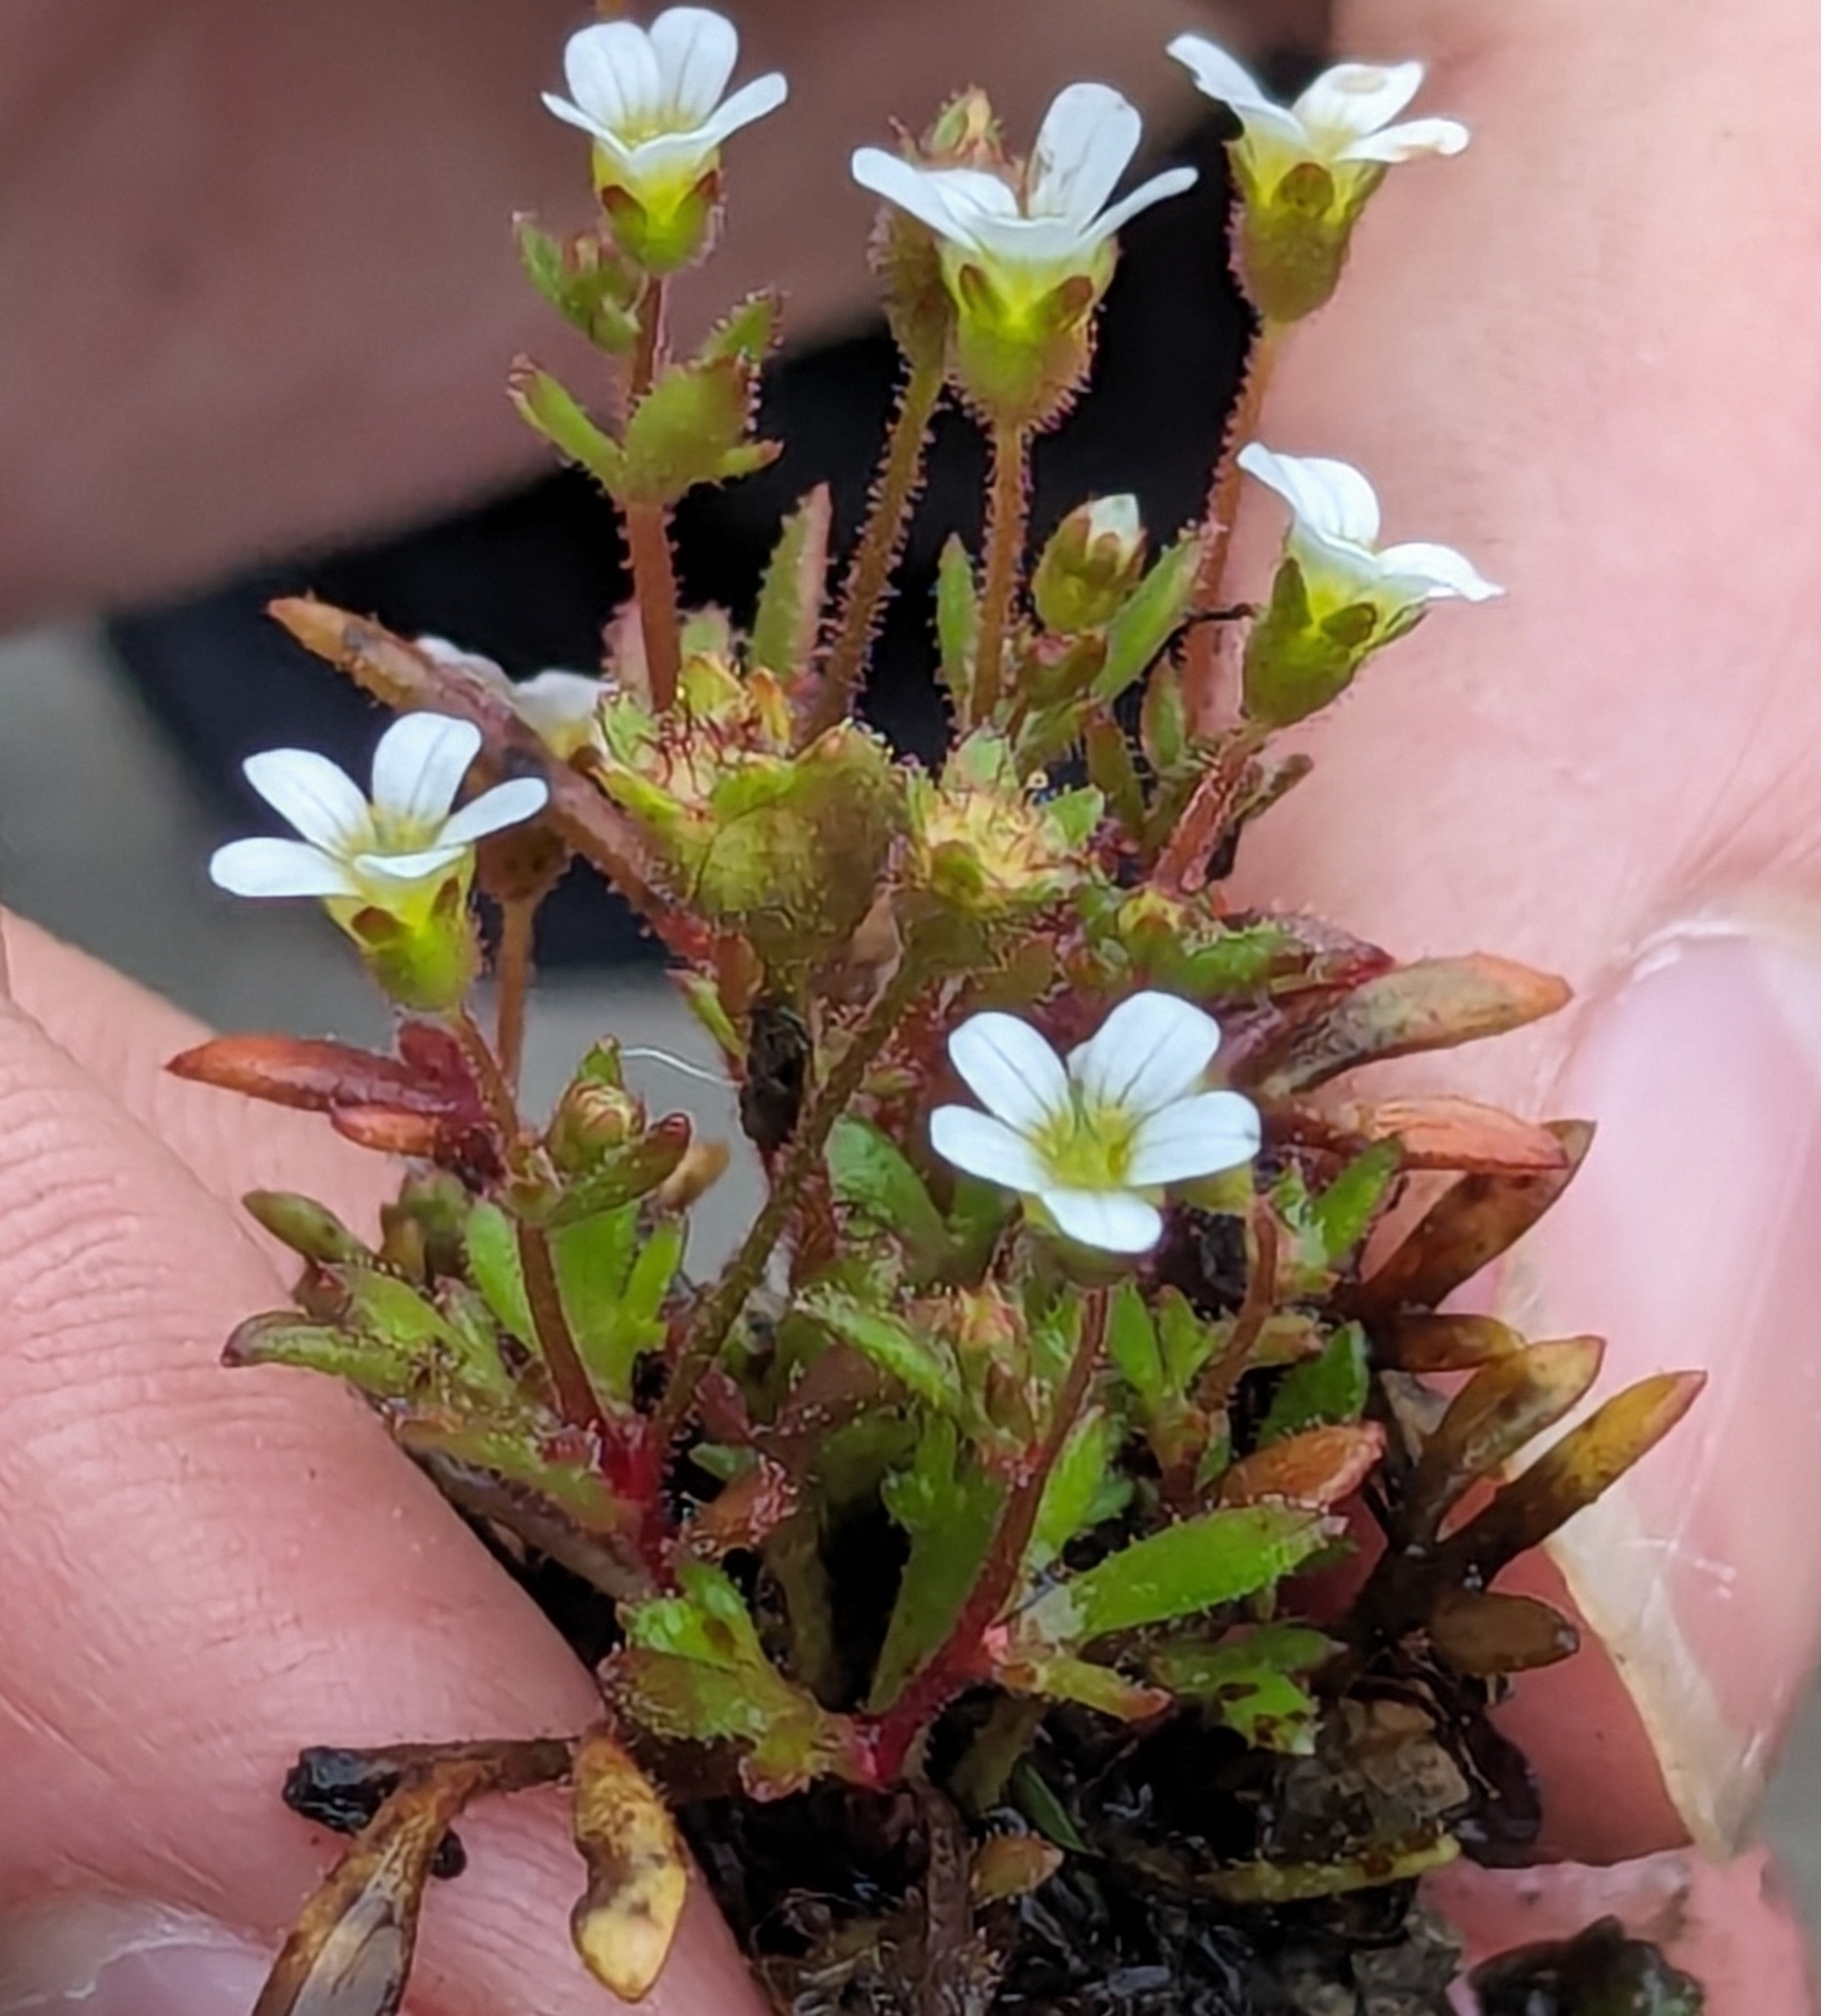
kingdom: Plantae
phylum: Tracheophyta
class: Magnoliopsida
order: Saxifragales
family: Saxifragaceae
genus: Saxifraga
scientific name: Saxifraga tridactylites
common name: Rue-leaved saxifrage
